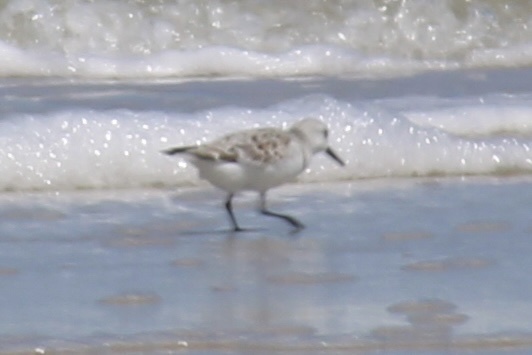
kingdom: Animalia
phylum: Chordata
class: Aves
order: Charadriiformes
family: Scolopacidae
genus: Calidris
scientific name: Calidris alba
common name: Sanderling
